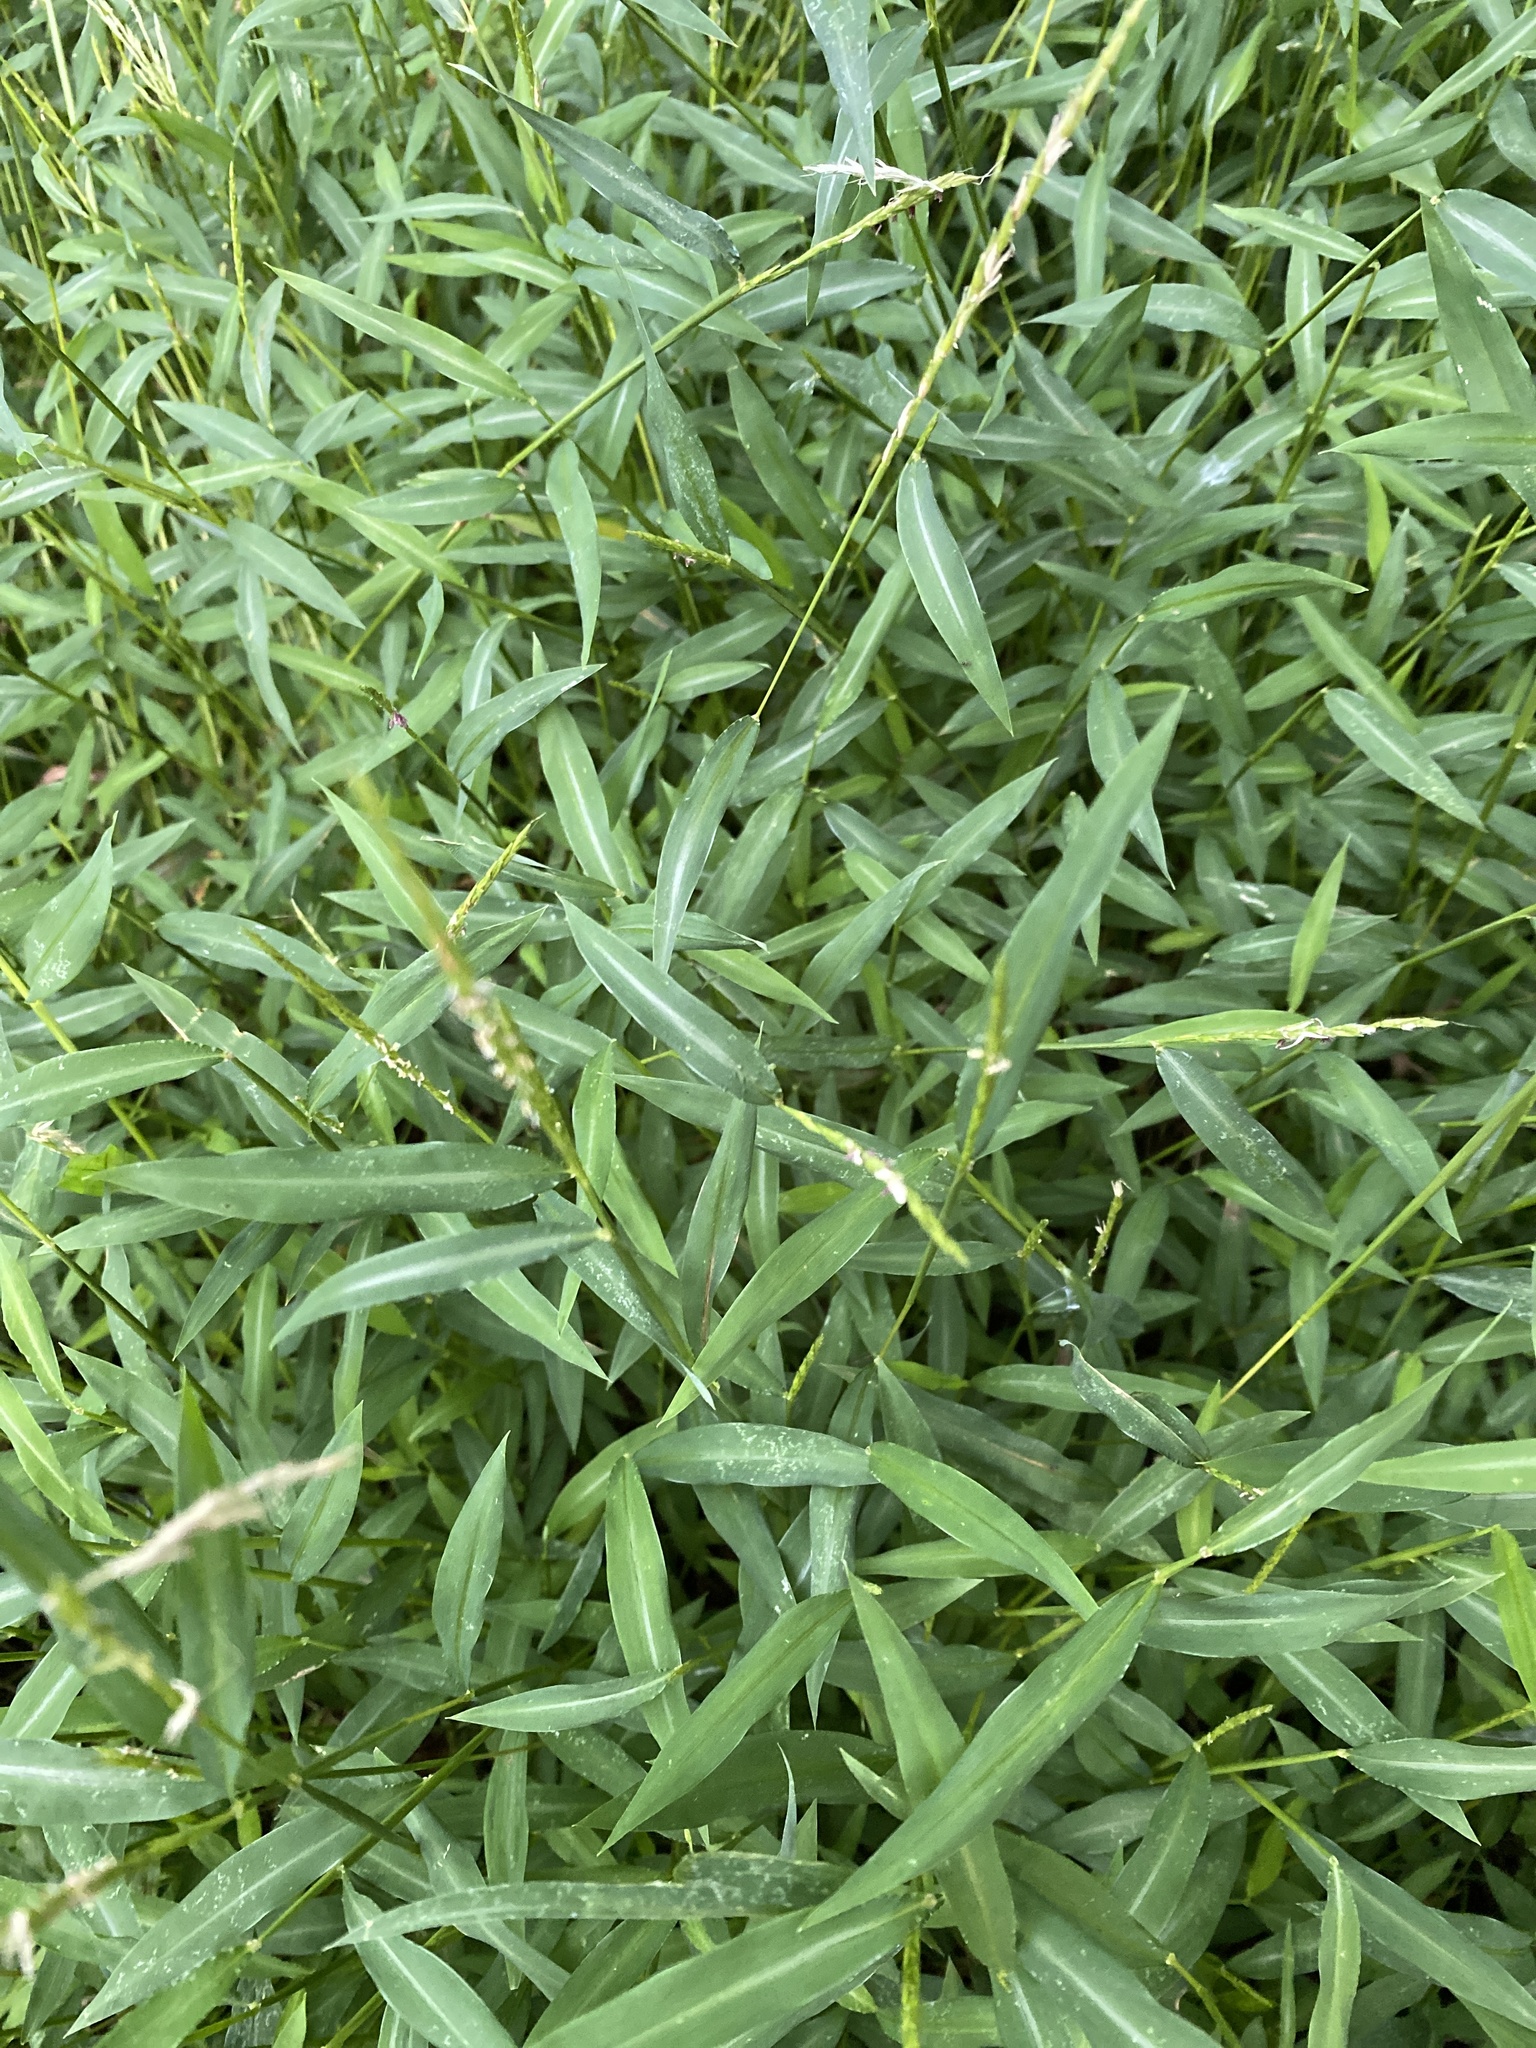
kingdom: Plantae
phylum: Tracheophyta
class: Liliopsida
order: Poales
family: Poaceae
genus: Microstegium
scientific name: Microstegium vimineum
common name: Japanese stiltgrass
